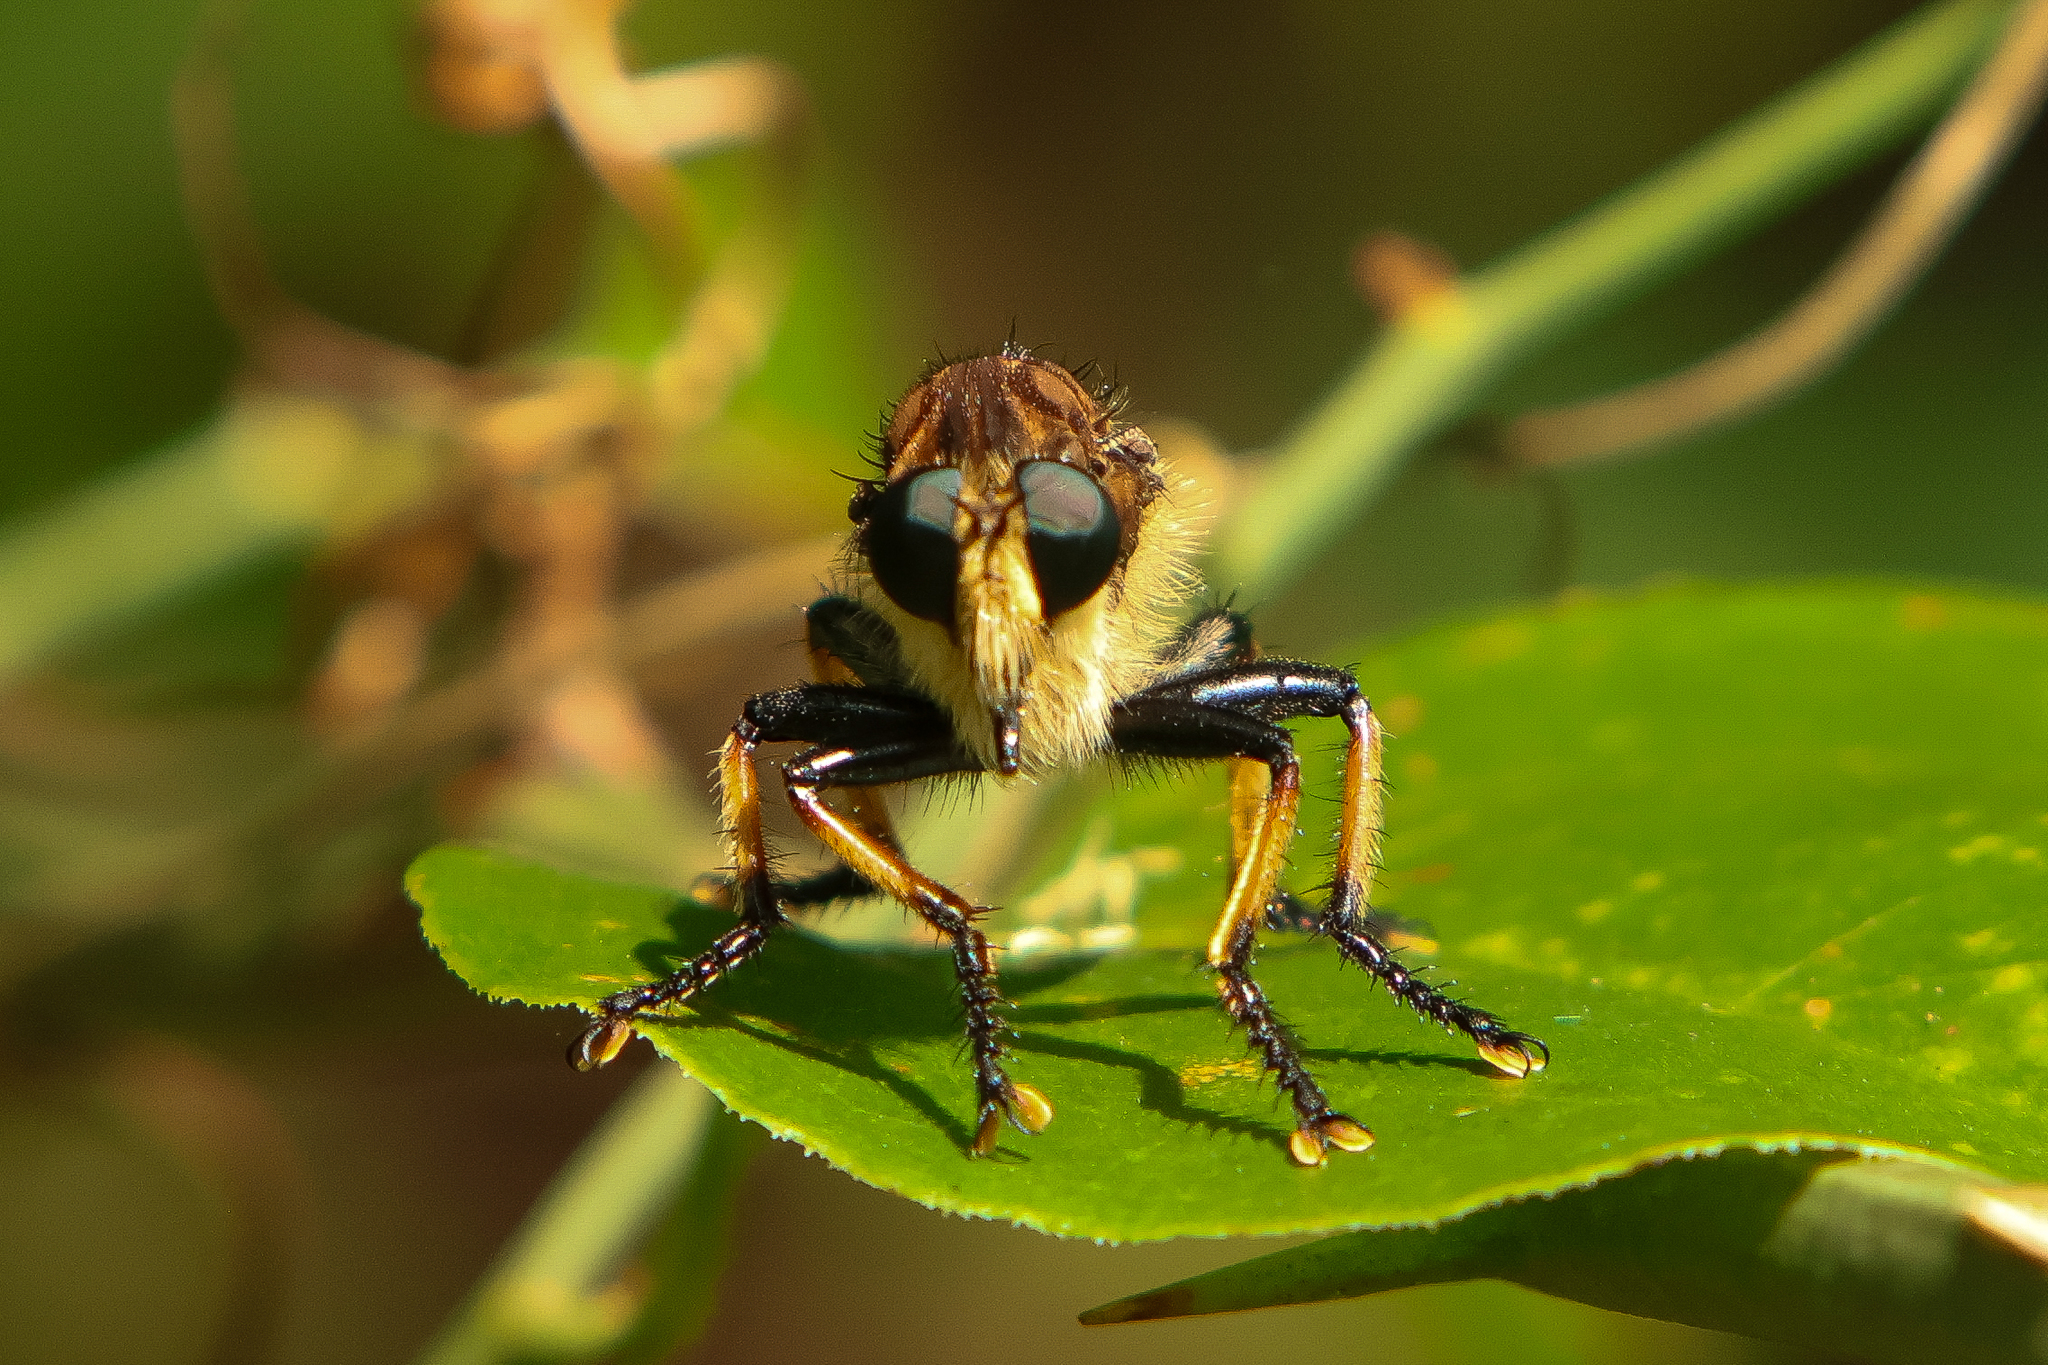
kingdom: Animalia
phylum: Arthropoda
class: Insecta
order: Diptera
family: Asilidae
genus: Promachus
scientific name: Promachus rufipes
